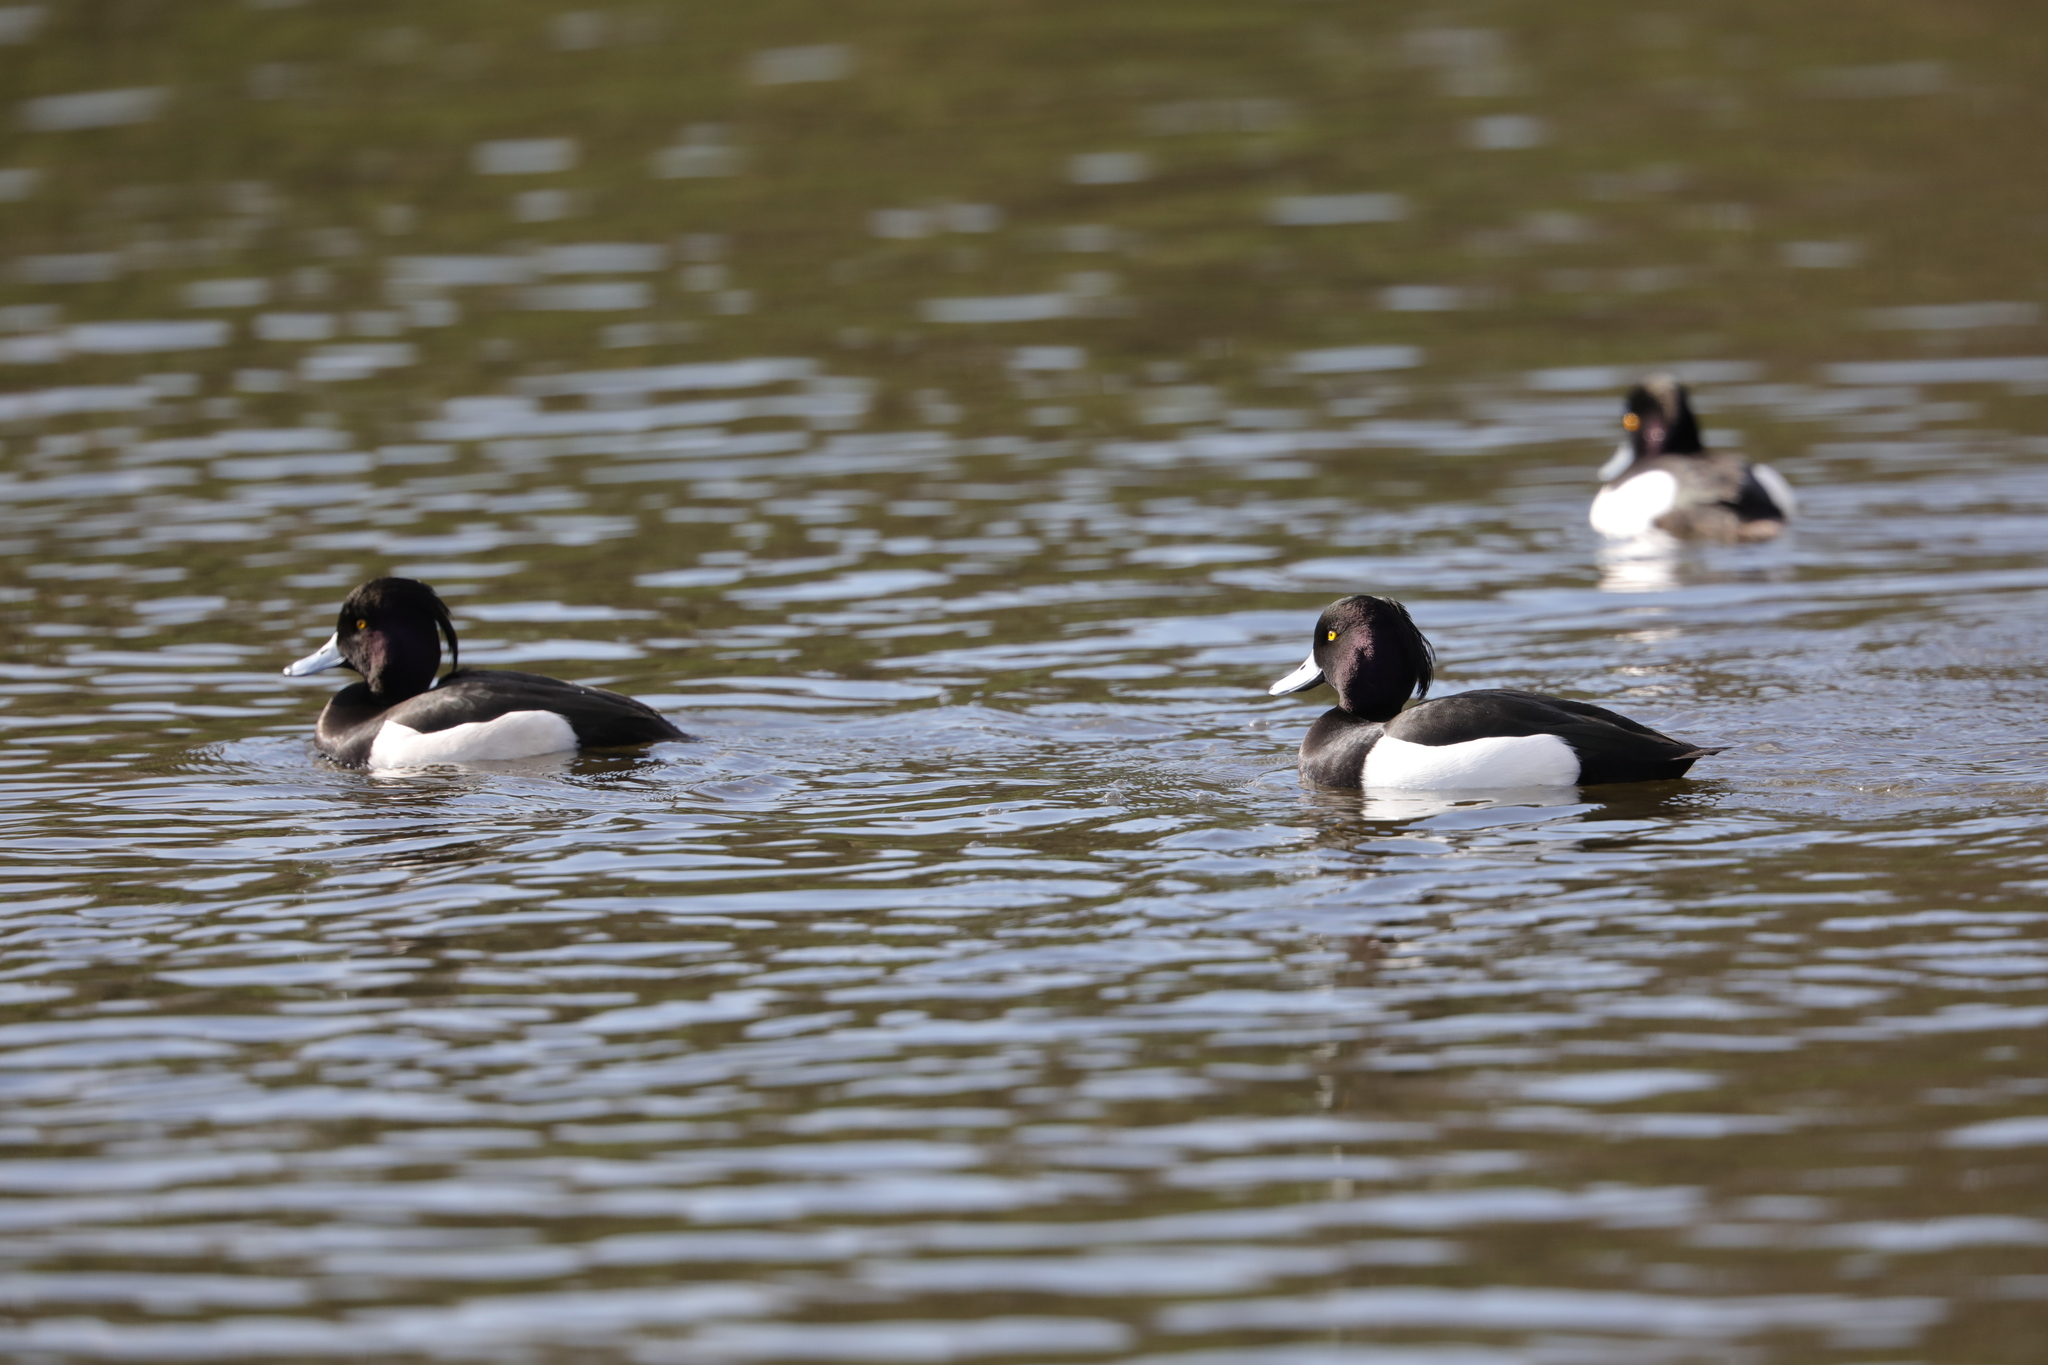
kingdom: Animalia
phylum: Chordata
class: Aves
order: Anseriformes
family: Anatidae
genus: Aythya
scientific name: Aythya fuligula
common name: Tufted duck
